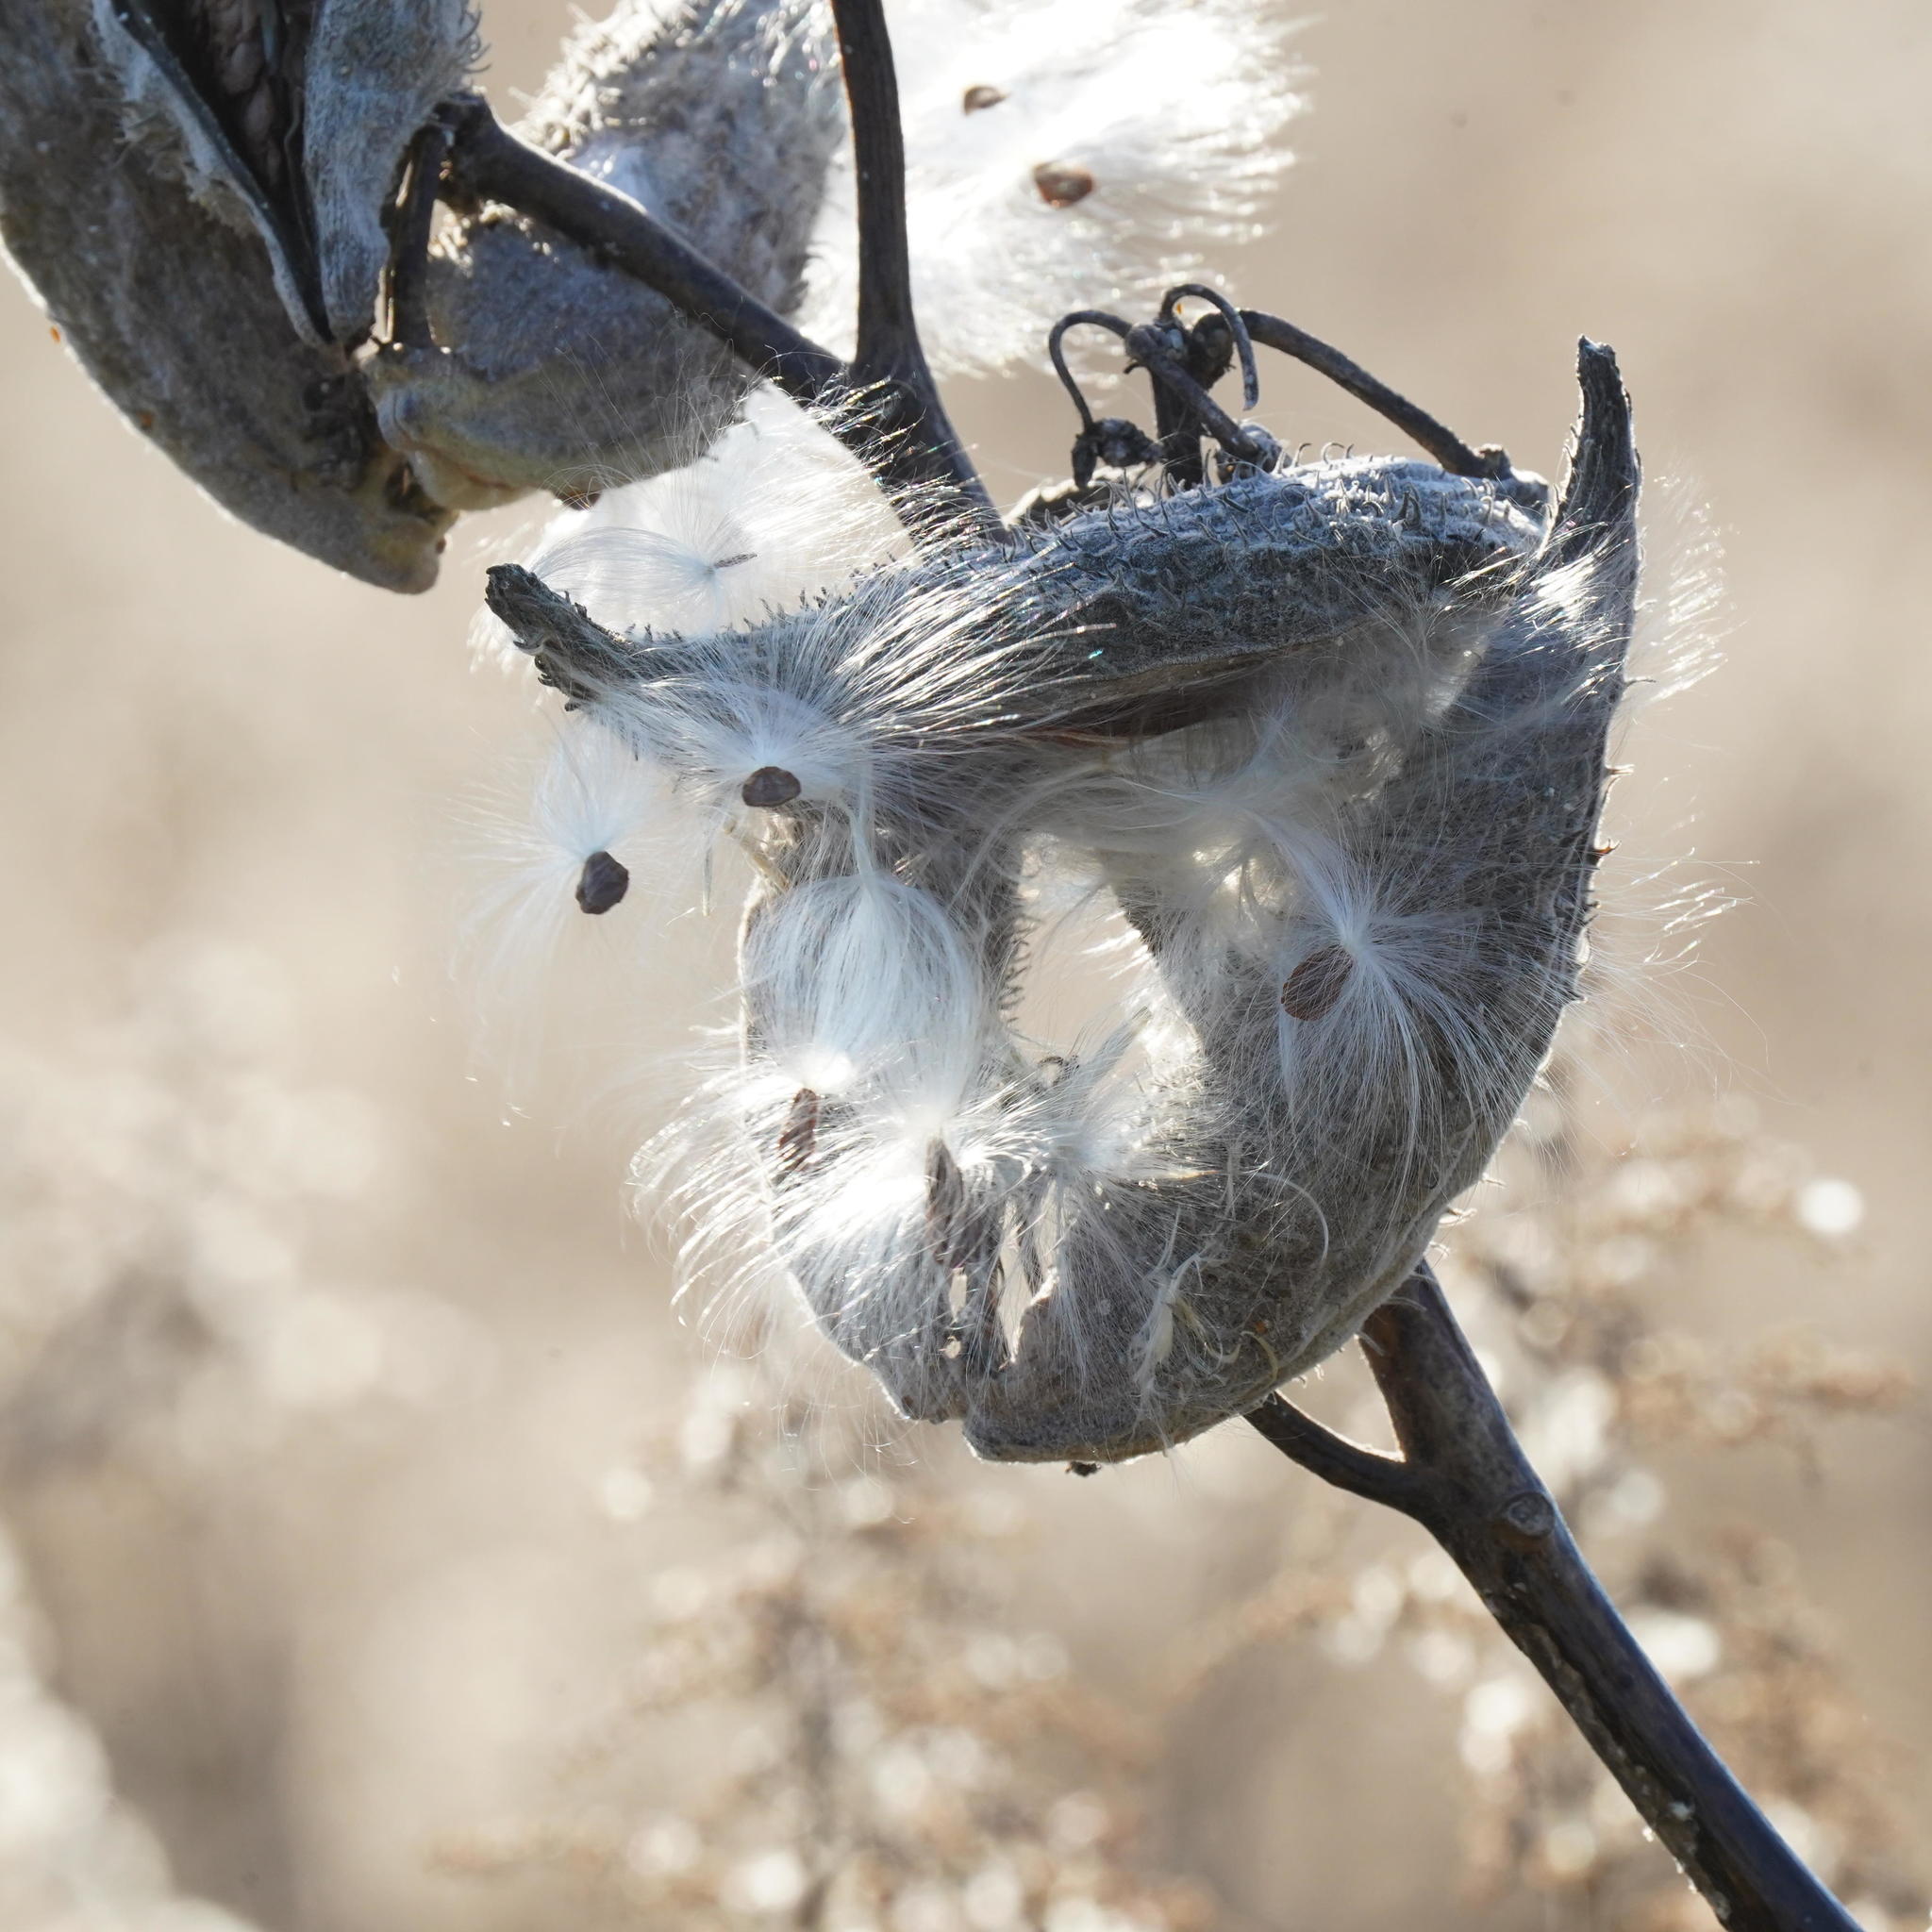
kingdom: Plantae
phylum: Tracheophyta
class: Magnoliopsida
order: Gentianales
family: Apocynaceae
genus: Asclepias
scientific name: Asclepias syriaca
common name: Common milkweed
